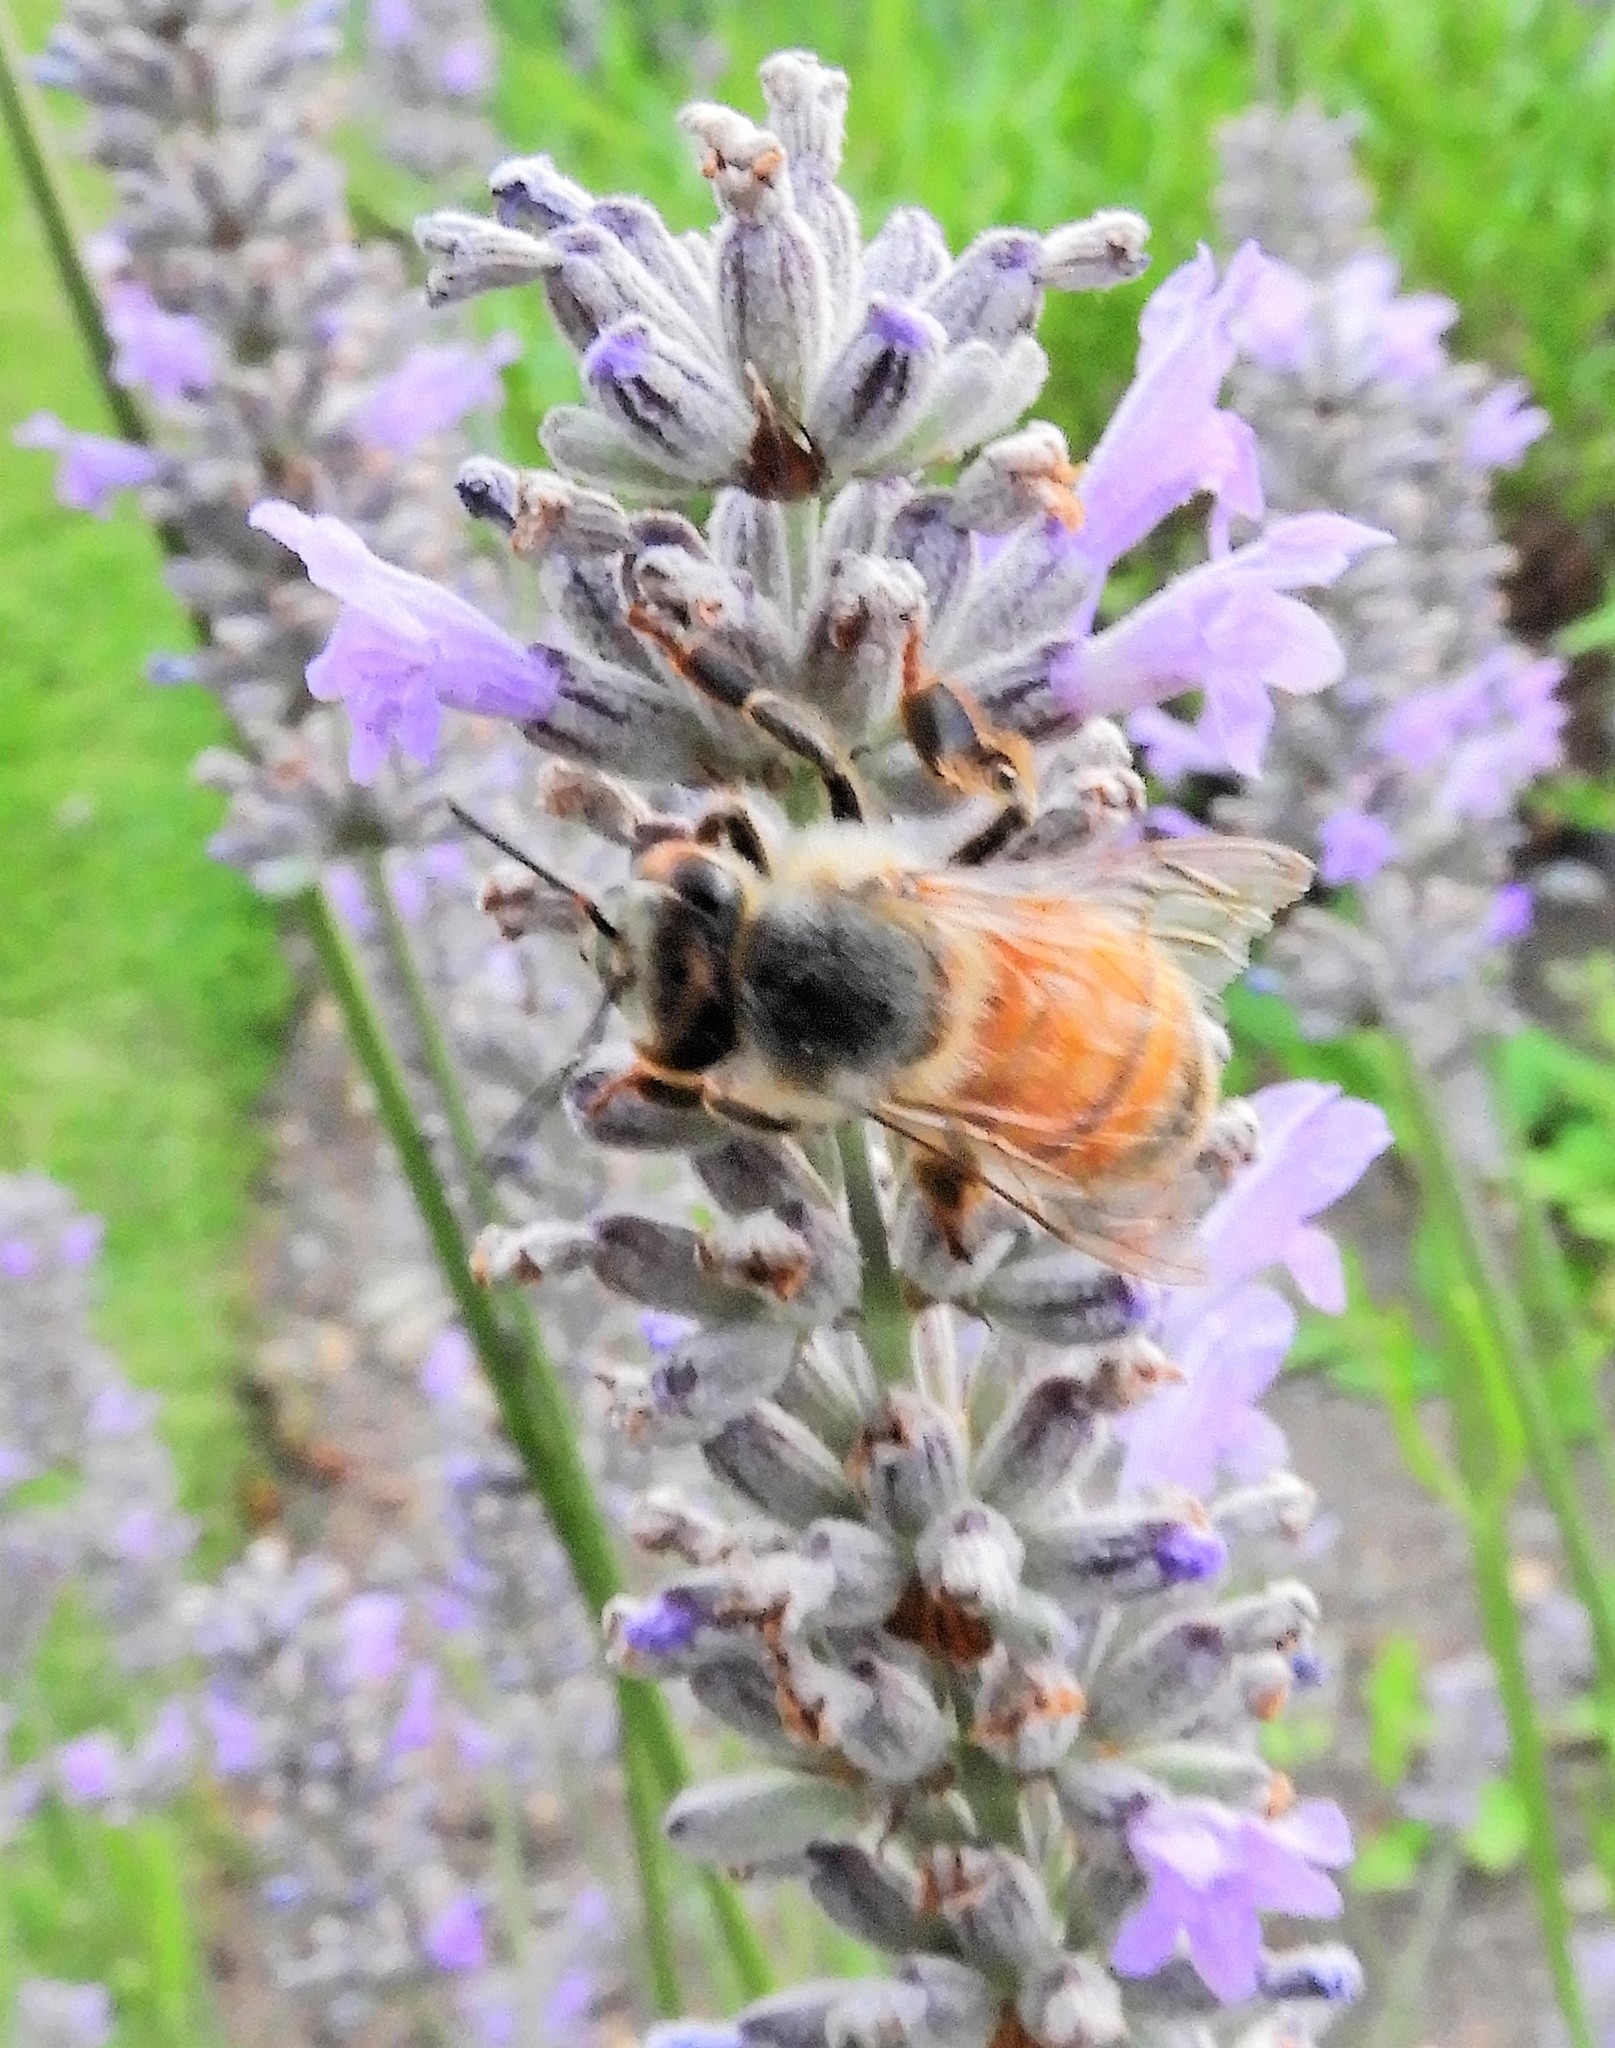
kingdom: Animalia
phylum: Arthropoda
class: Insecta
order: Hymenoptera
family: Apidae
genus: Apis
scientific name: Apis mellifera
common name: Honey bee
